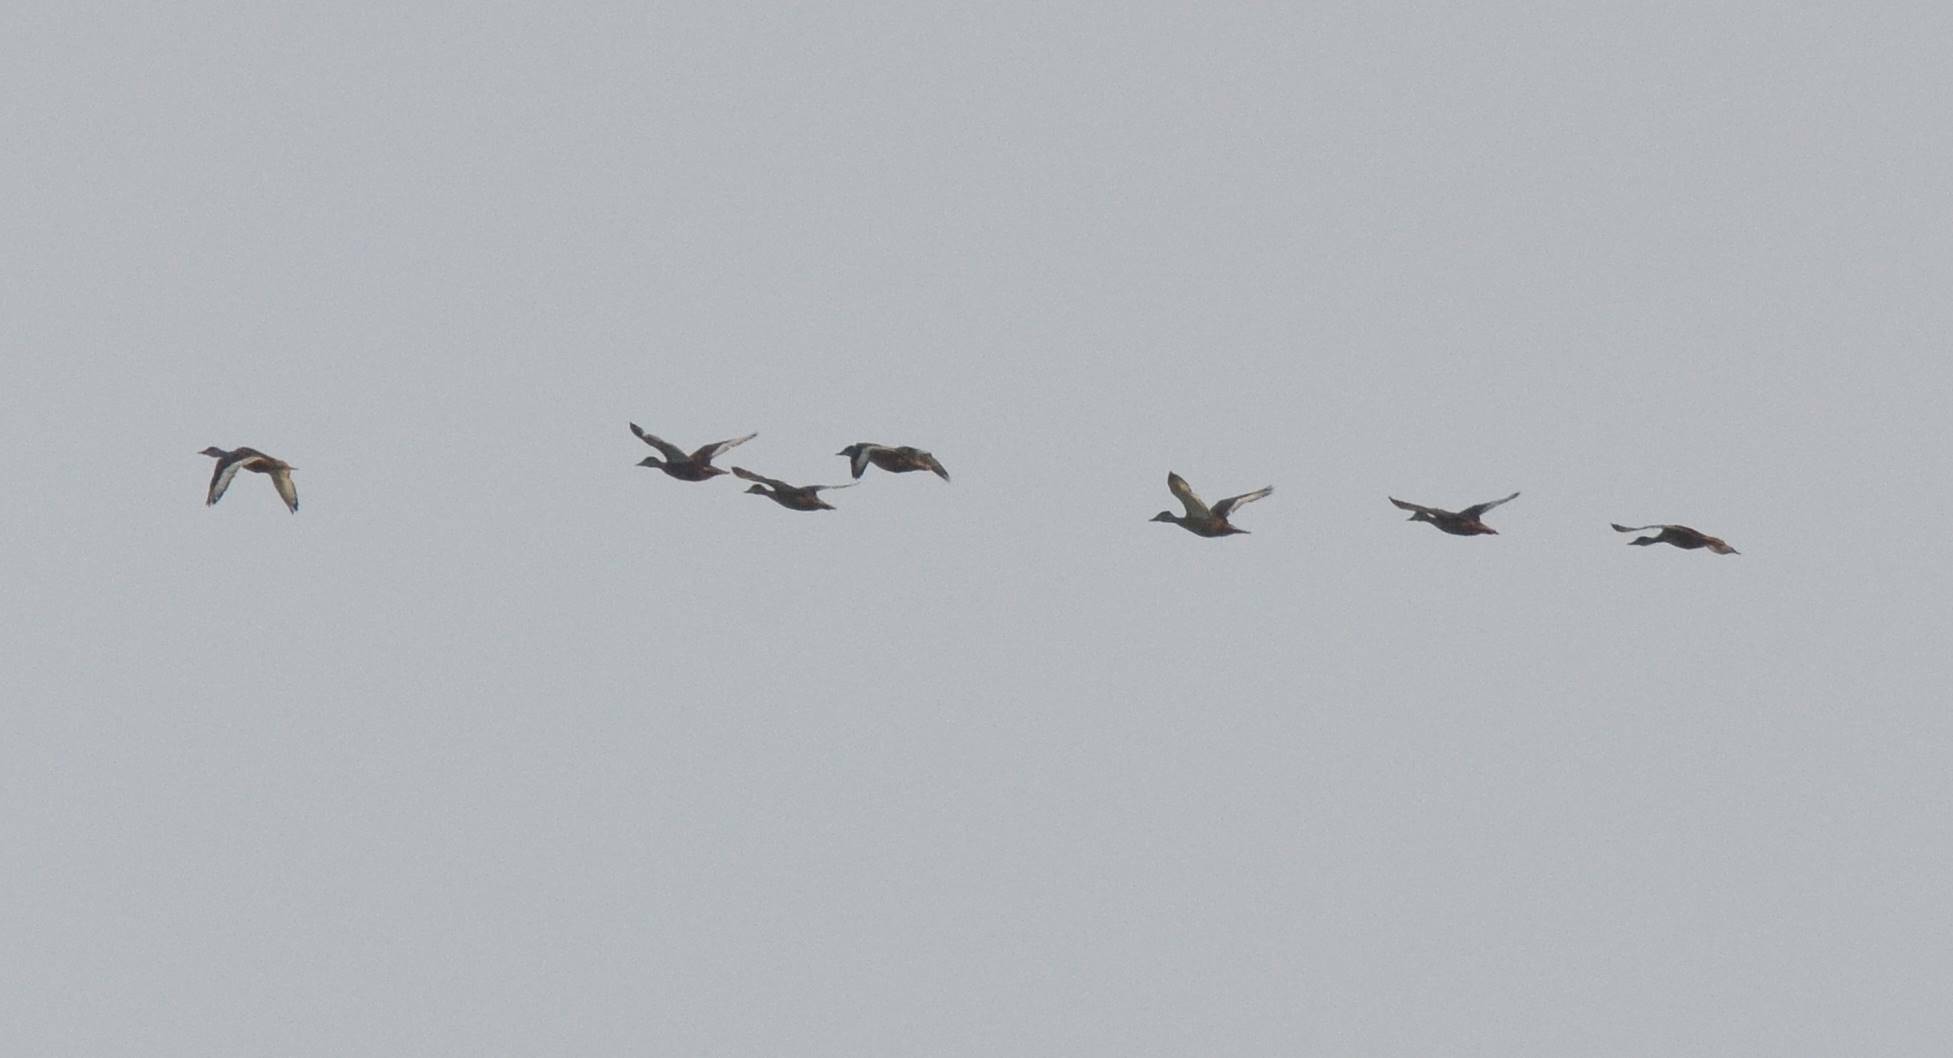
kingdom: Animalia
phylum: Chordata
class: Aves
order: Anseriformes
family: Anatidae
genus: Aythya
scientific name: Aythya nyroca
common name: Ferruginous duck
